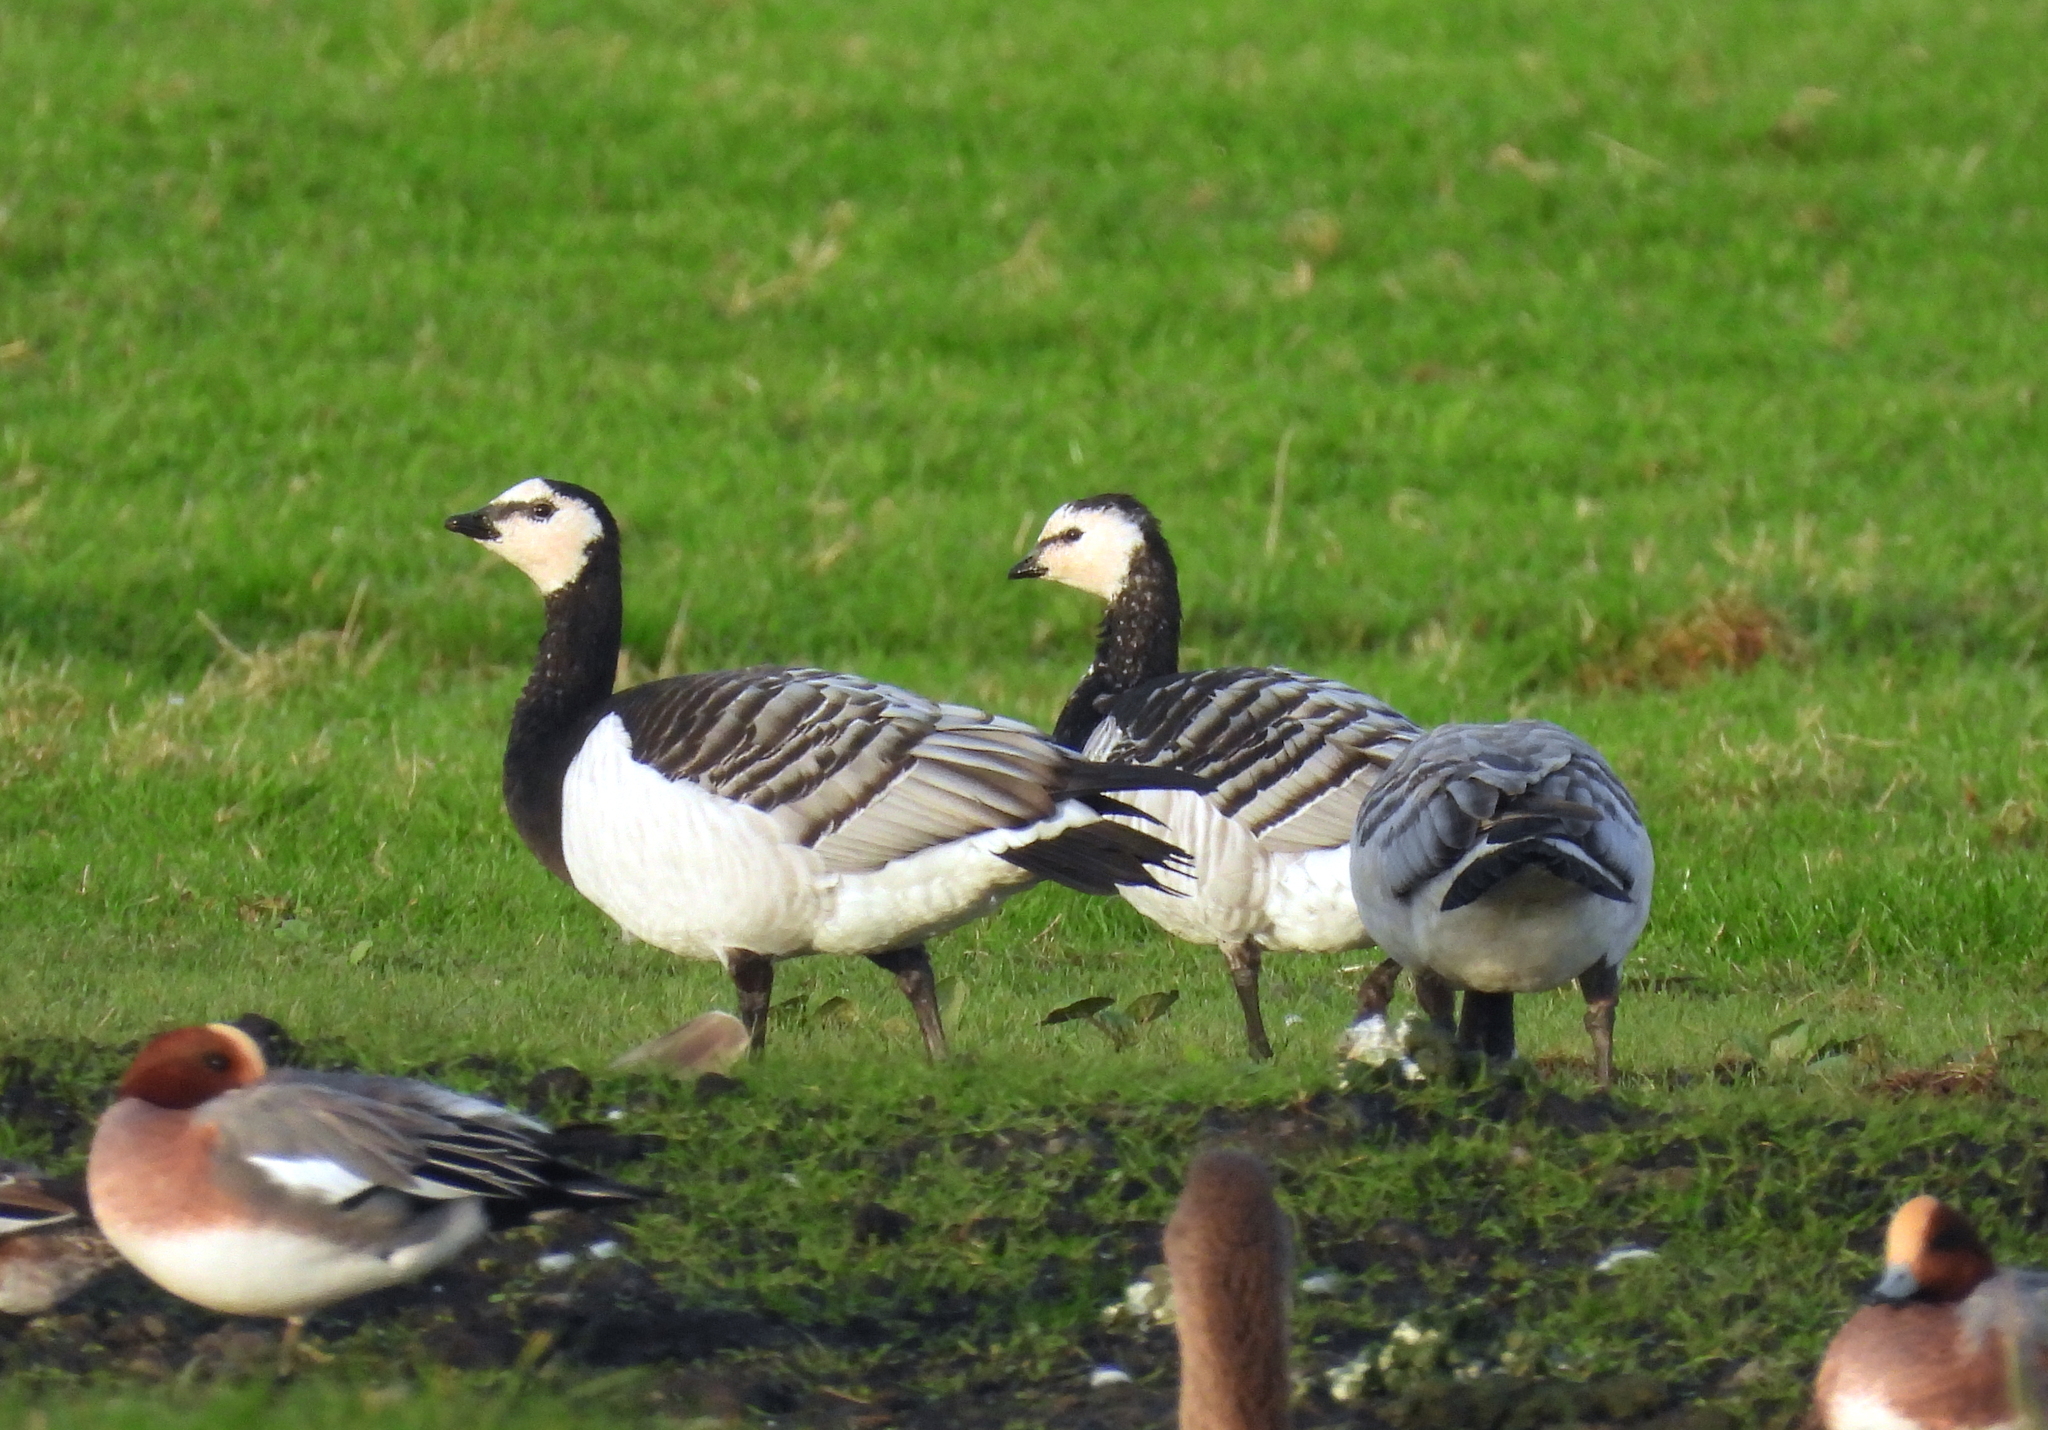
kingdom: Animalia
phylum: Chordata
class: Aves
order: Anseriformes
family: Anatidae
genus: Branta
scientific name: Branta leucopsis
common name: Barnacle goose
